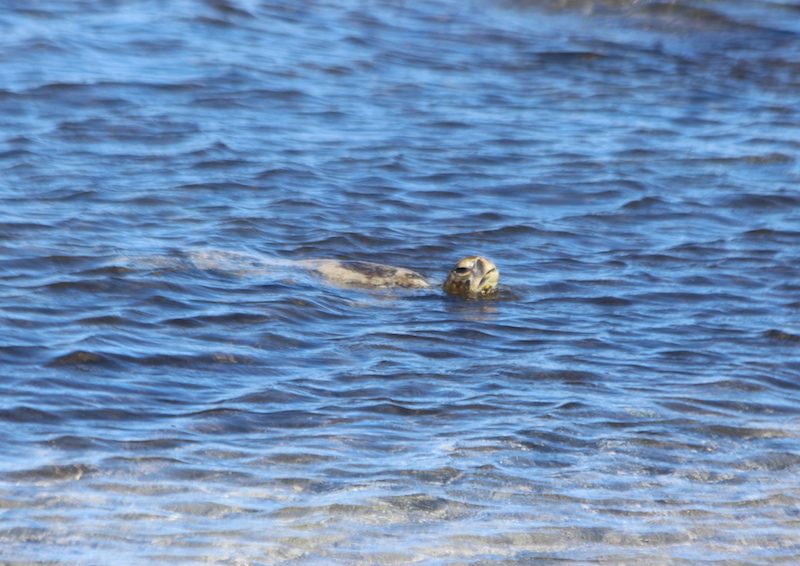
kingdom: Animalia
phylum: Chordata
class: Testudines
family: Cheloniidae
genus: Chelonia
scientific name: Chelonia mydas
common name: Green turtle
